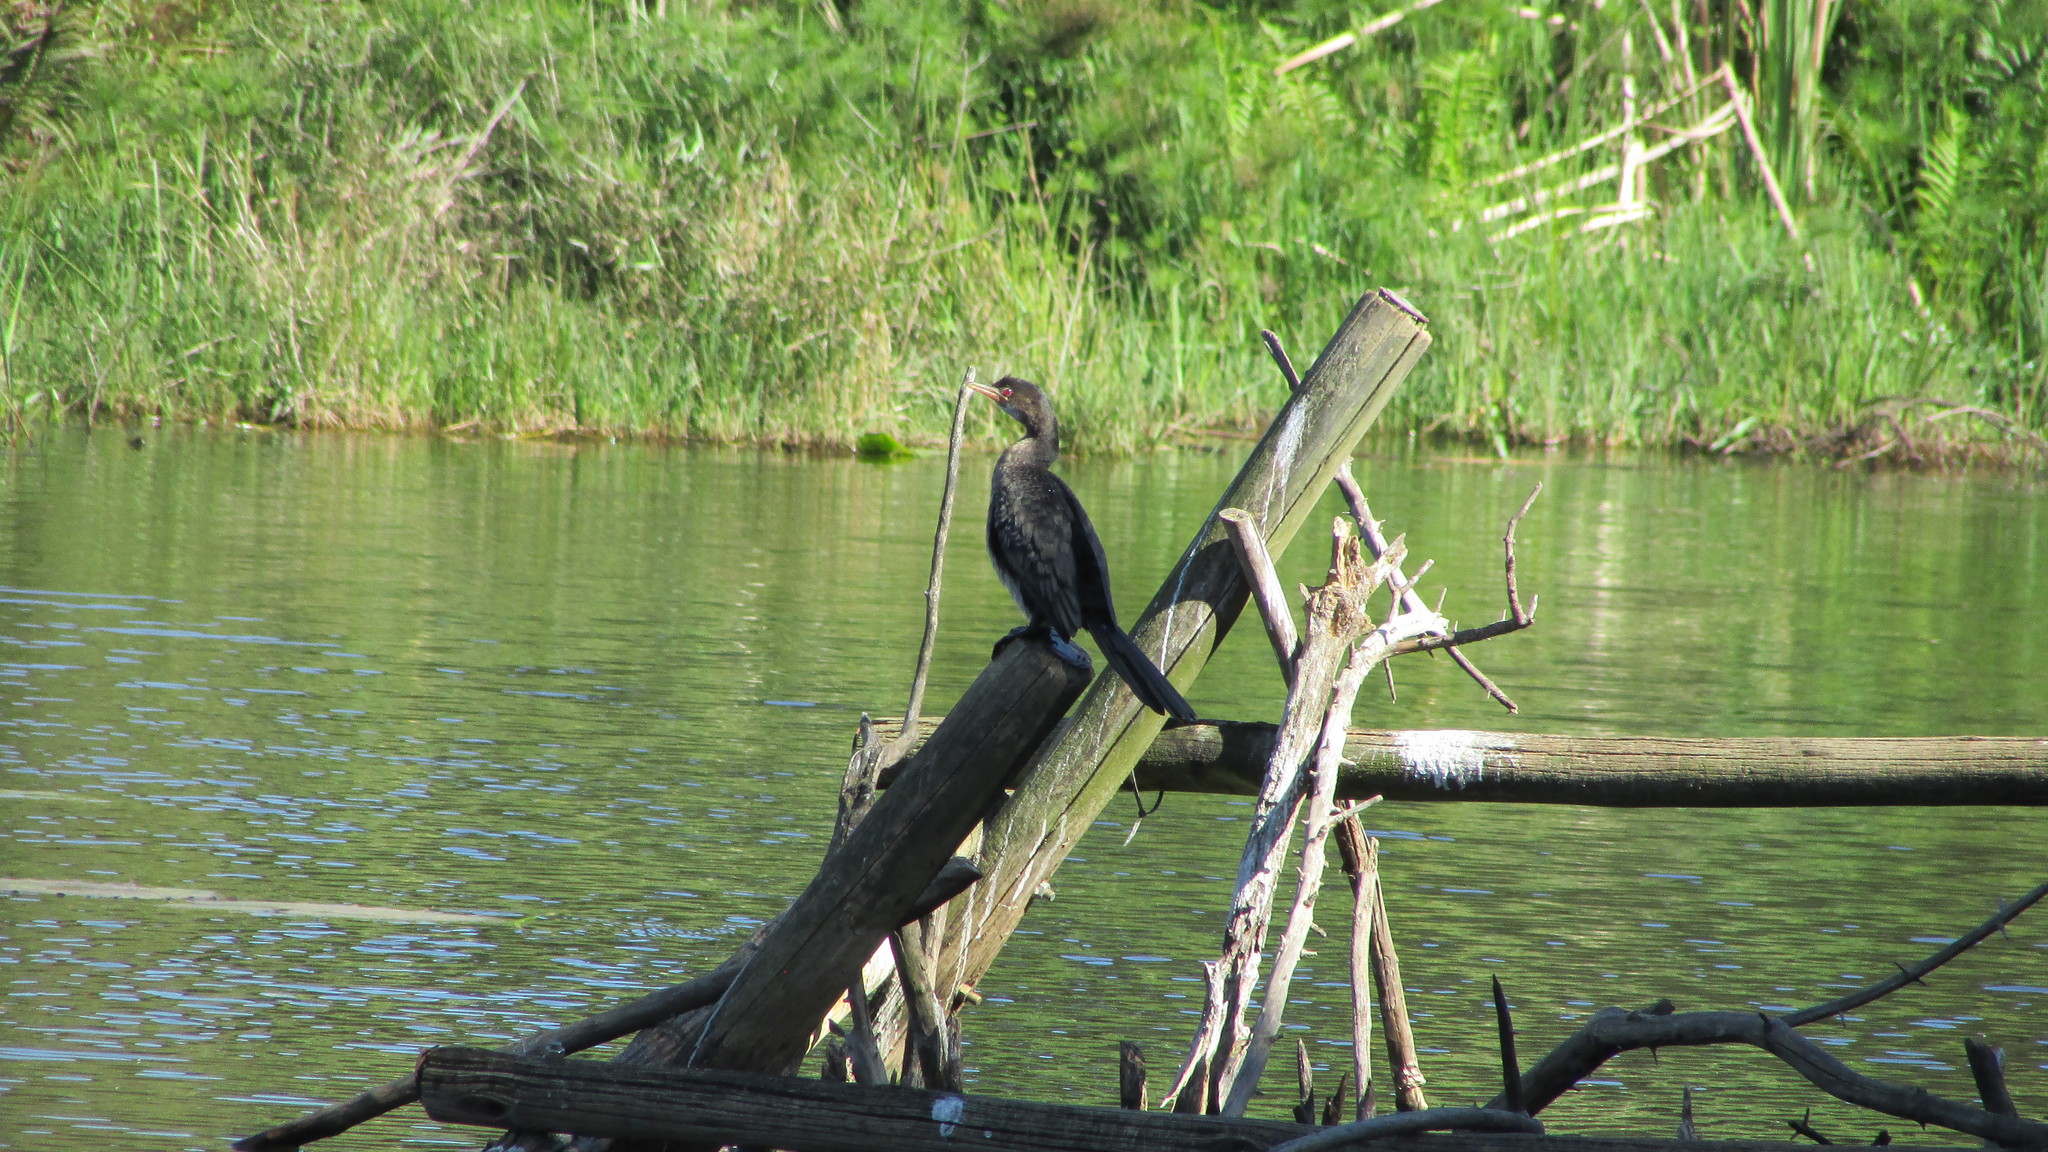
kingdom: Animalia
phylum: Chordata
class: Aves
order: Suliformes
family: Phalacrocoracidae
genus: Microcarbo
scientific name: Microcarbo africanus
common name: Long-tailed cormorant
